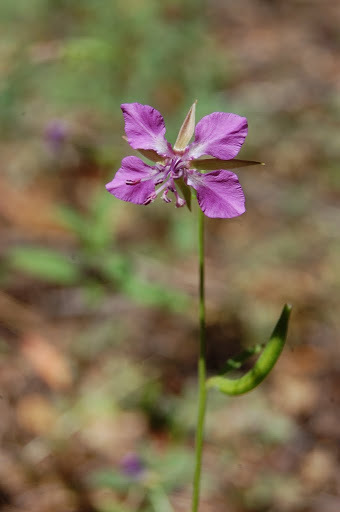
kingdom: Plantae
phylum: Tracheophyta
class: Magnoliopsida
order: Myrtales
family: Onagraceae
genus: Clarkia
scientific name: Clarkia rhomboidea
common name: Broadleaf clarkia
